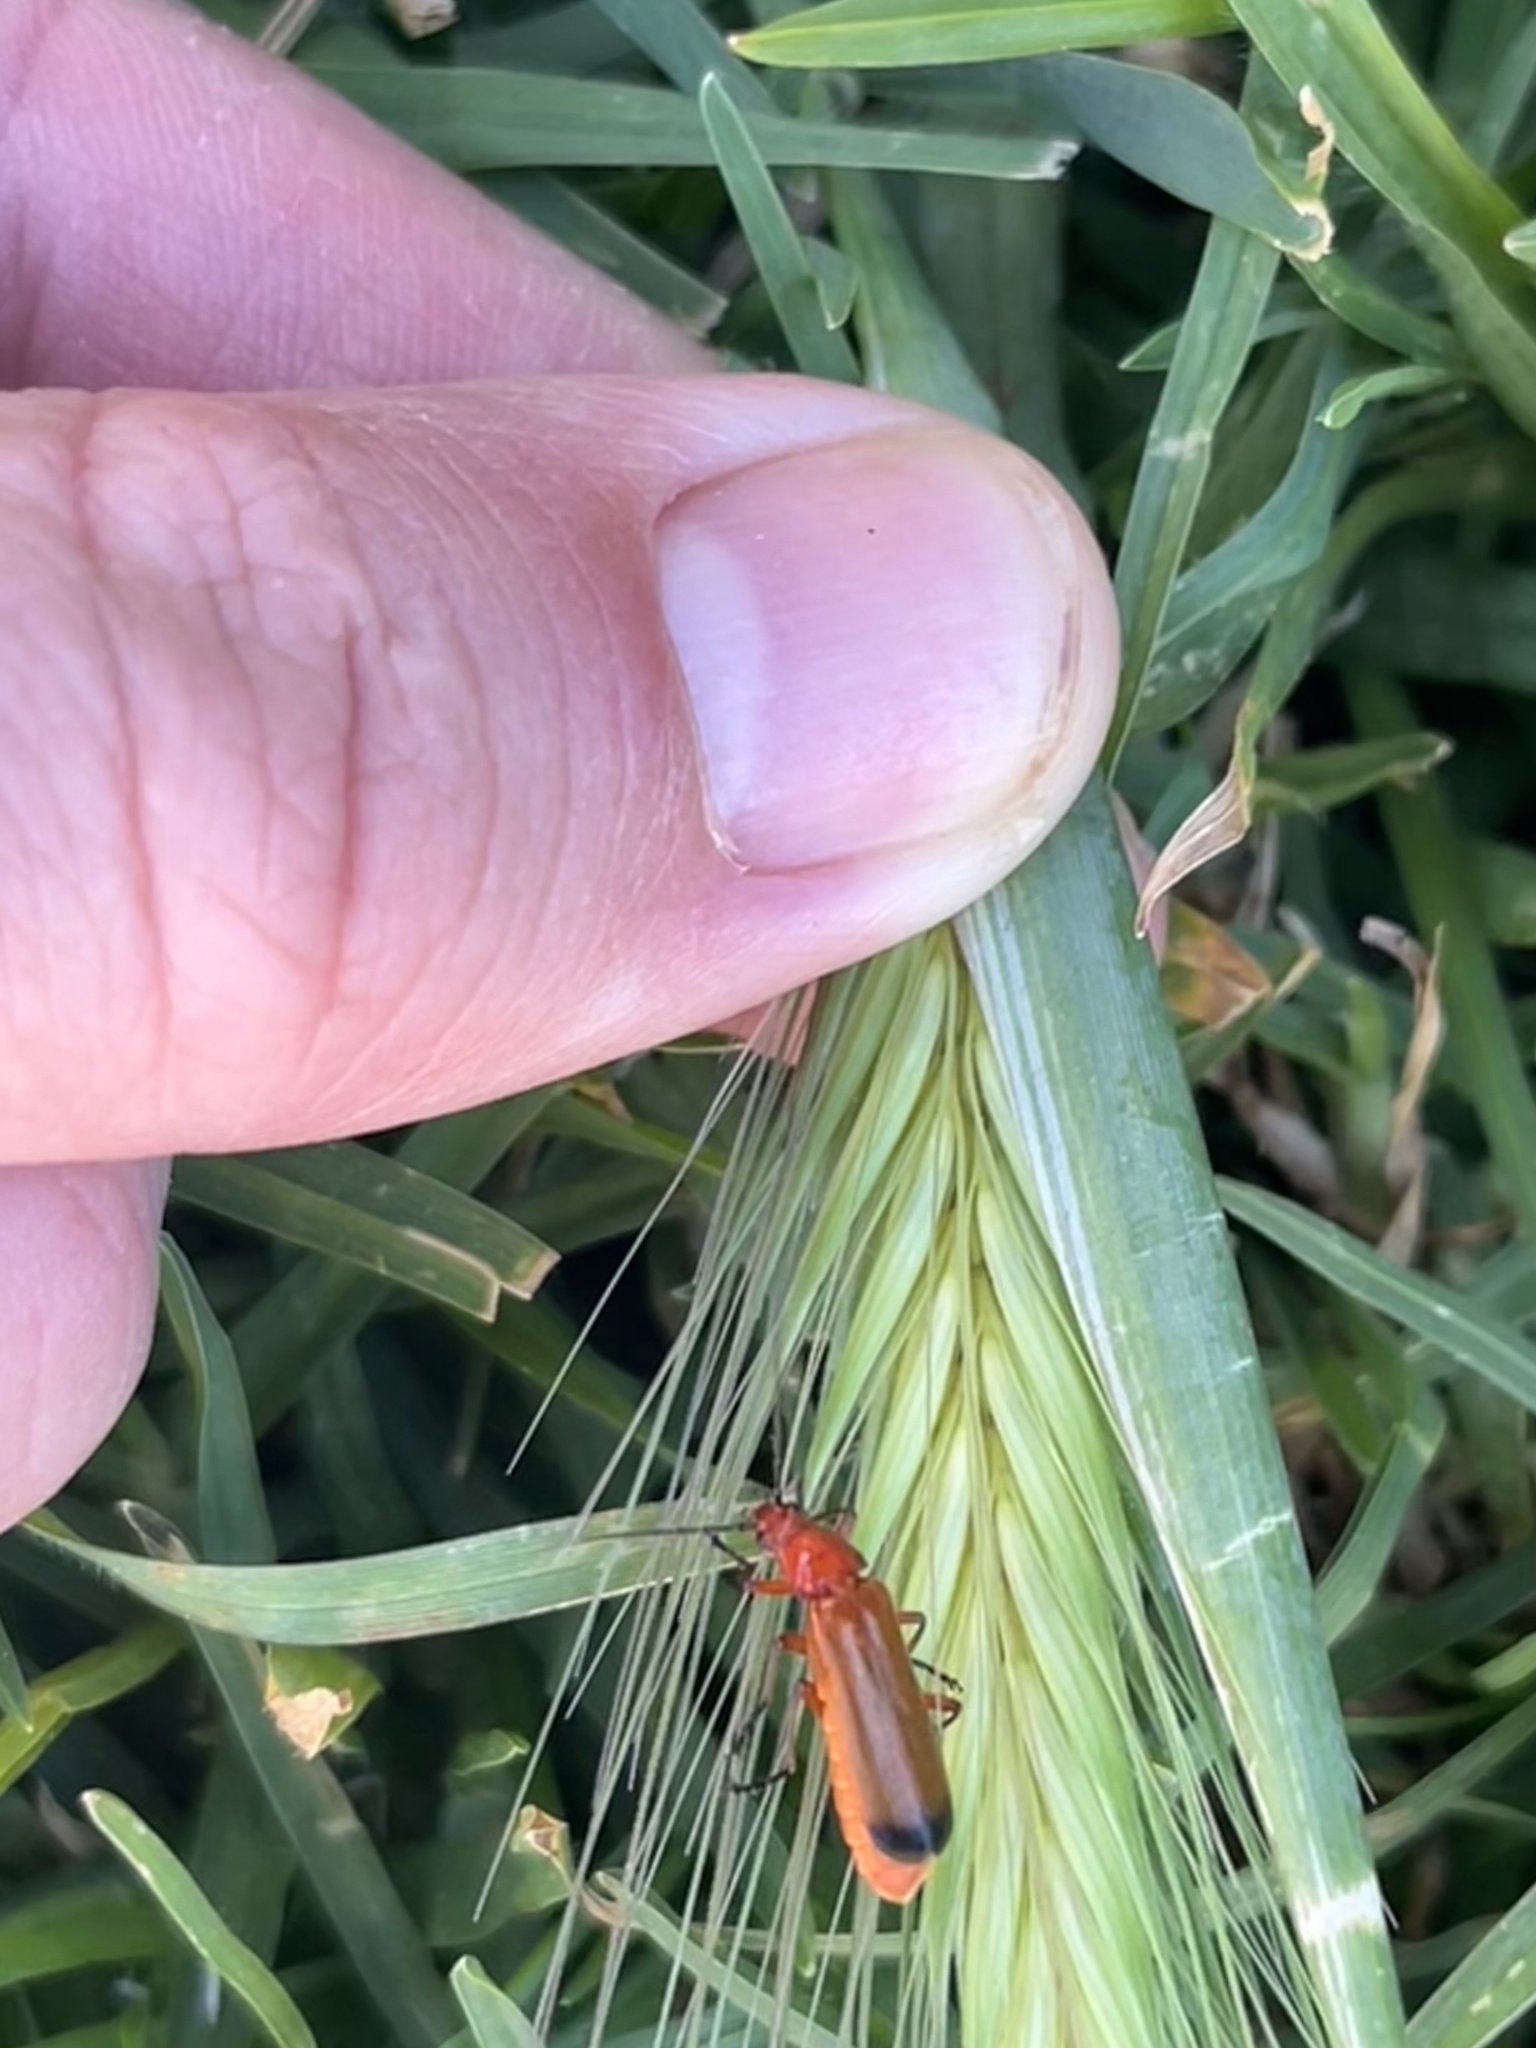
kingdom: Animalia
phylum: Arthropoda
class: Insecta
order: Coleoptera
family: Cantharidae
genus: Rhagonycha
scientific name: Rhagonycha fulva
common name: Common red soldier beetle
